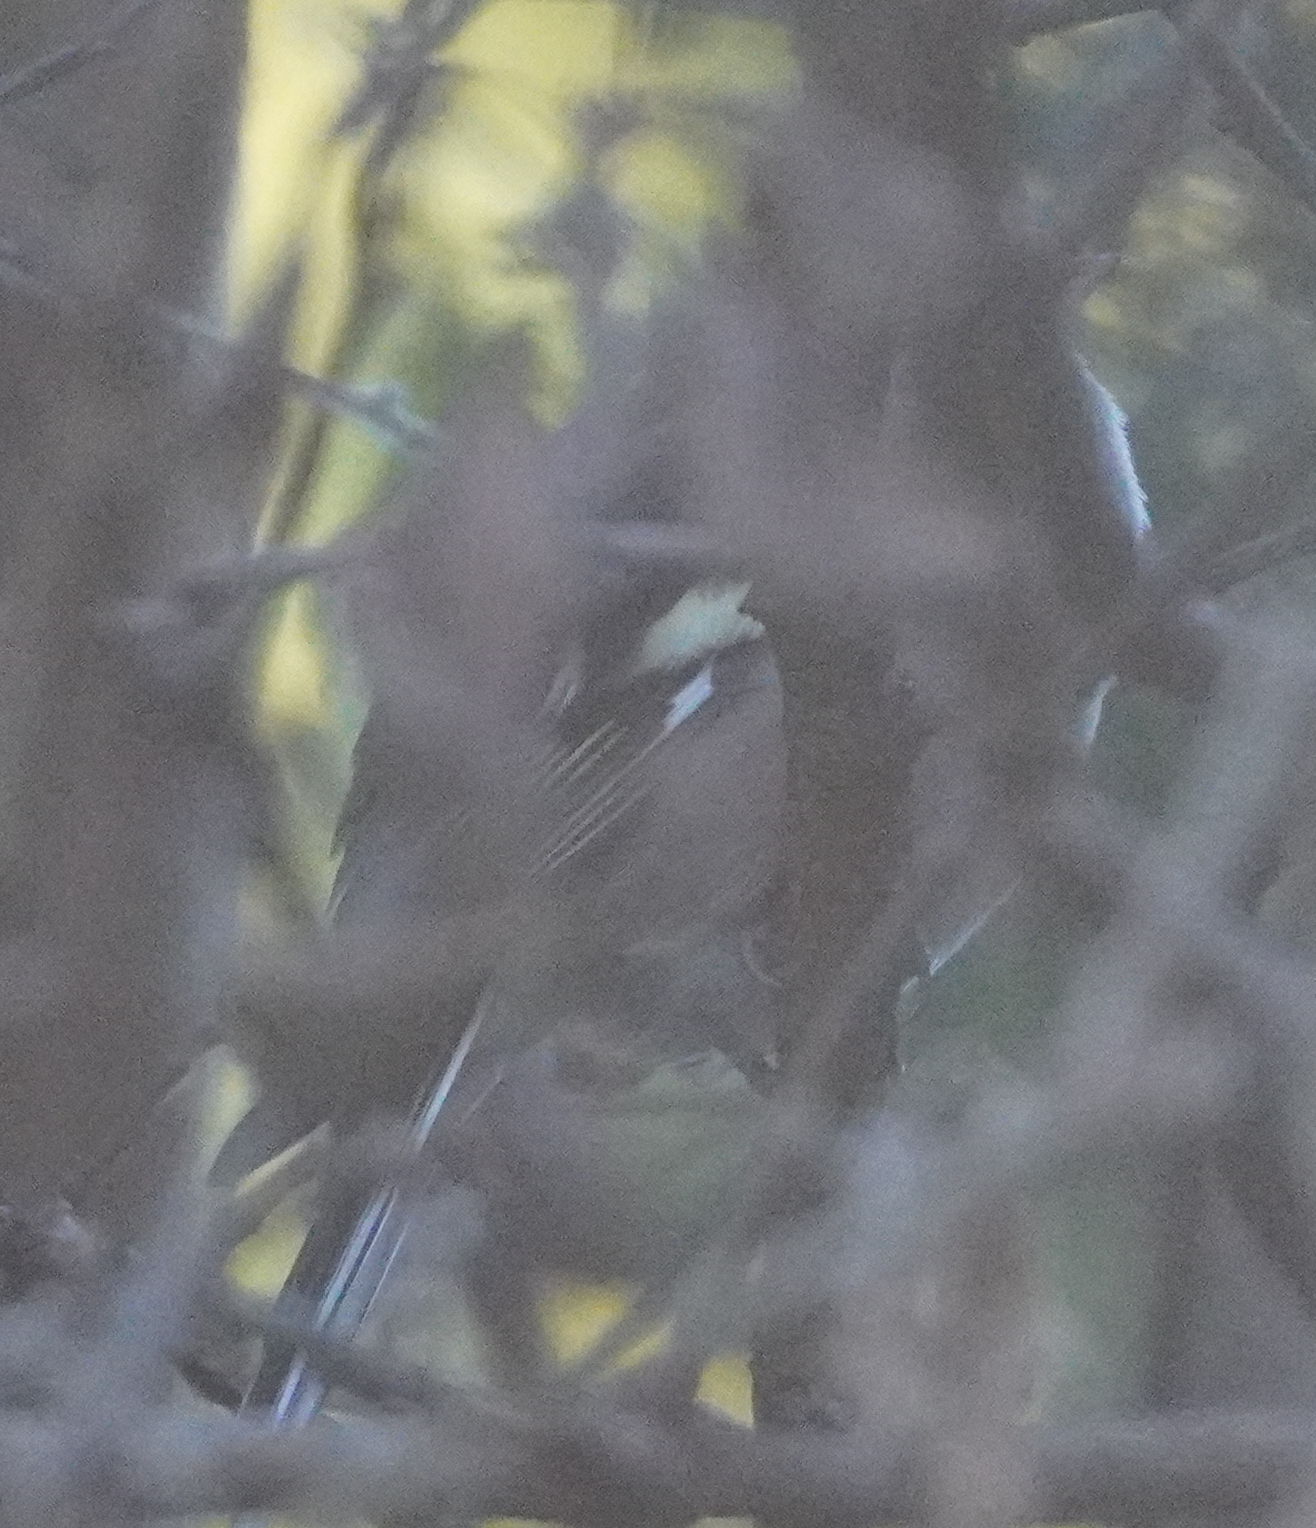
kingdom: Animalia
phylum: Chordata
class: Aves
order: Passeriformes
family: Fringillidae
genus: Fringilla
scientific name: Fringilla coelebs
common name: Common chaffinch
